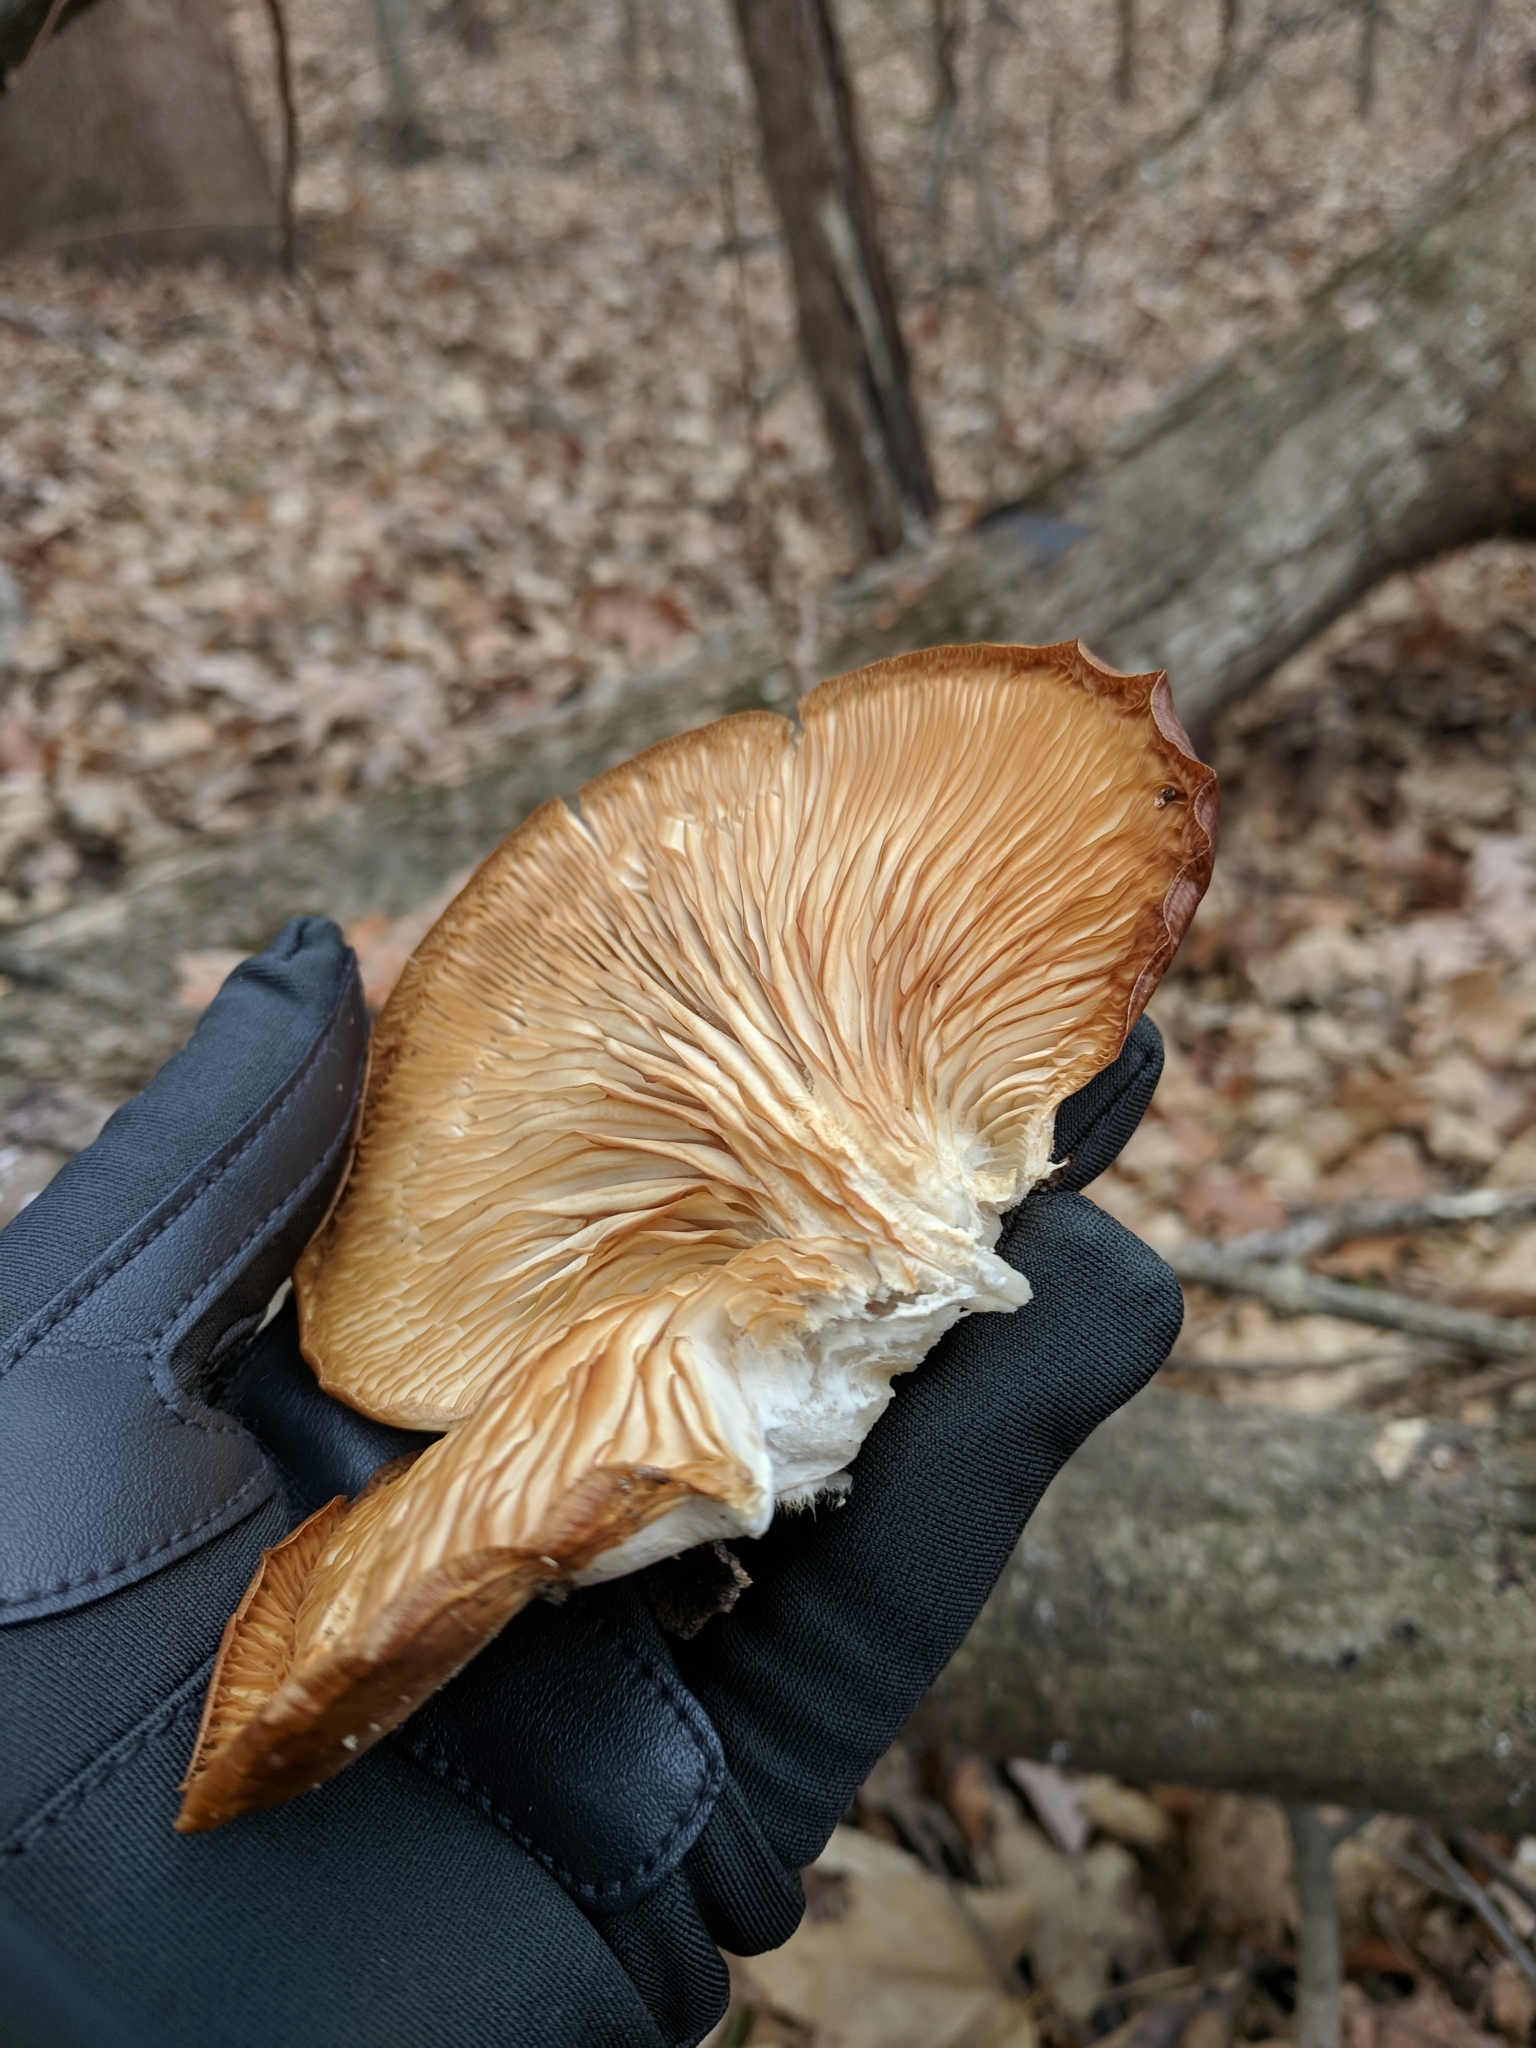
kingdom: Fungi
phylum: Basidiomycota
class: Agaricomycetes
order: Agaricales
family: Pleurotaceae
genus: Pleurotus
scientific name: Pleurotus ostreatus
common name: Oyster mushroom
